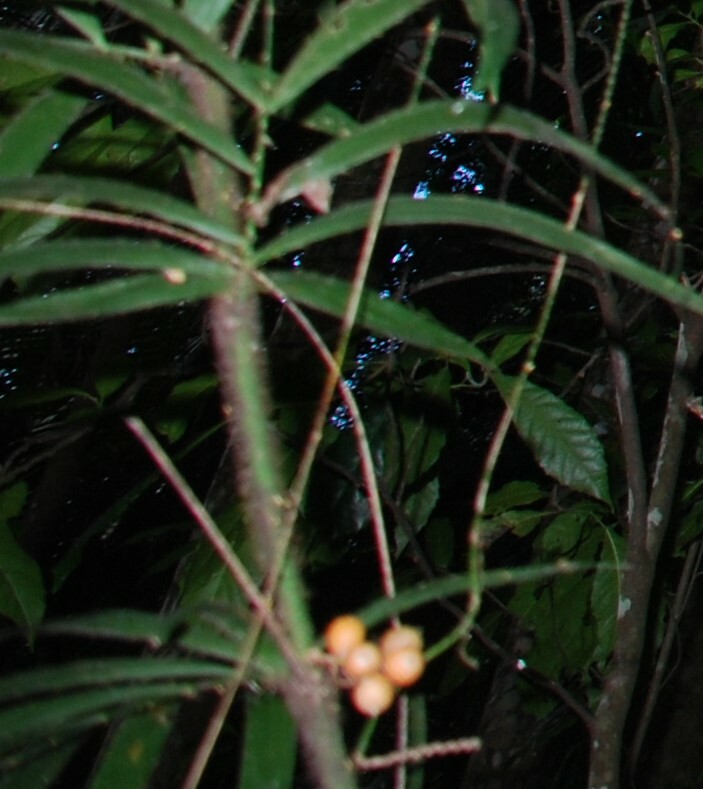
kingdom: Plantae
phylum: Tracheophyta
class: Liliopsida
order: Arecales
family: Arecaceae
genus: Calamus
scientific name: Calamus muelleri
